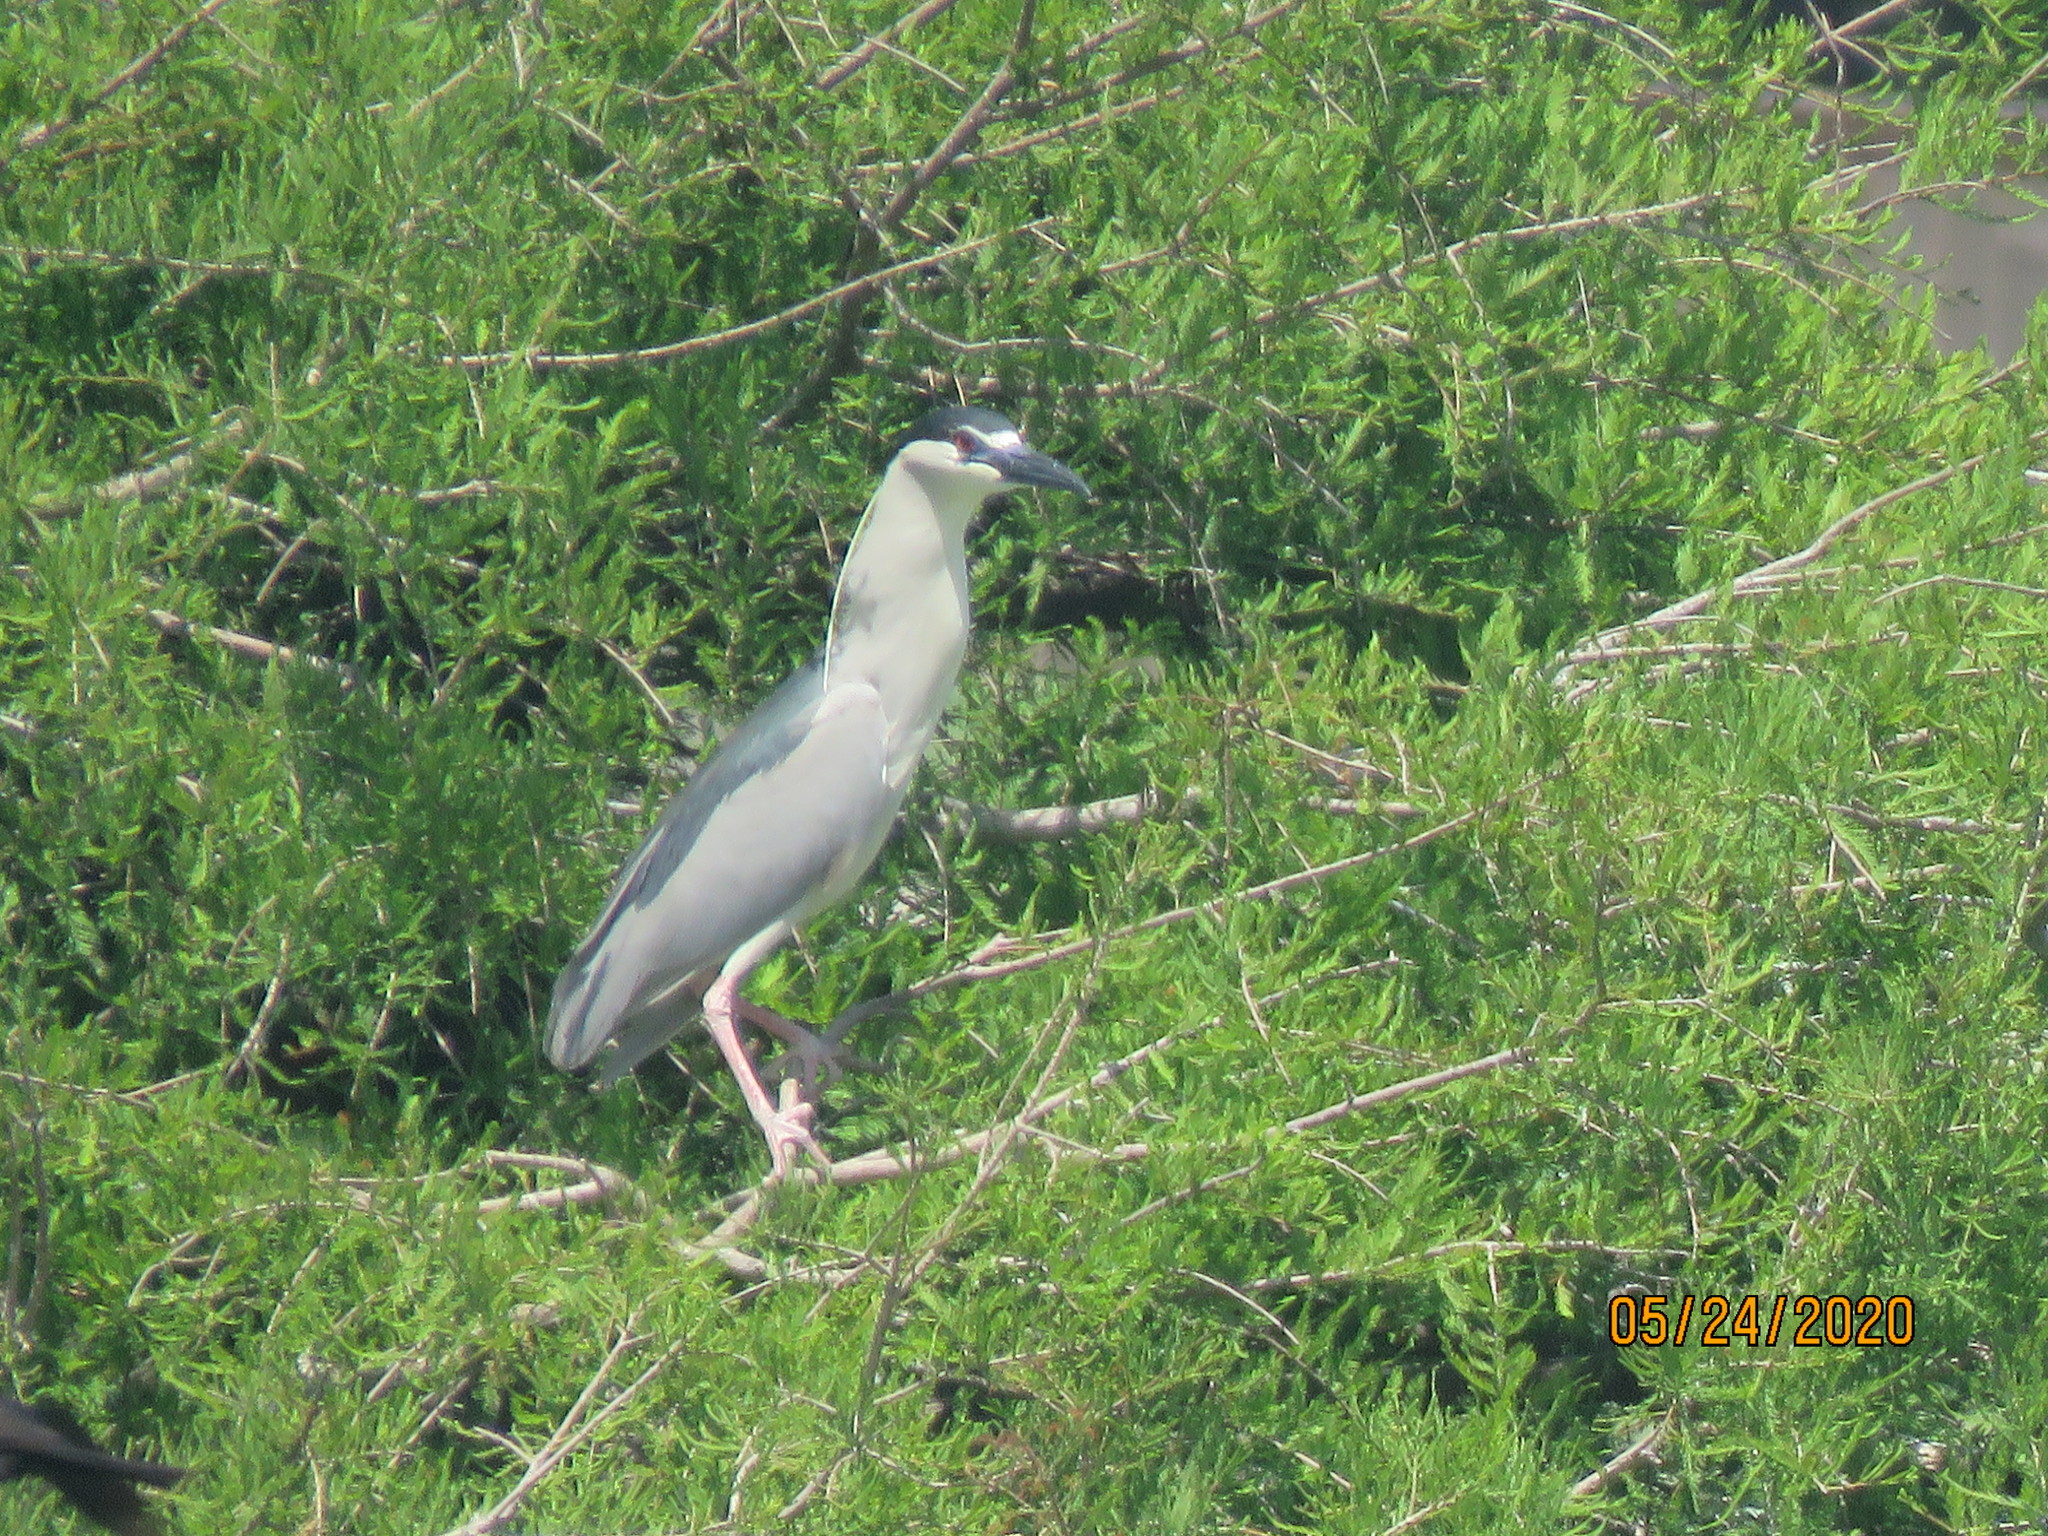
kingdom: Animalia
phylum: Chordata
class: Aves
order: Pelecaniformes
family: Ardeidae
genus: Nycticorax
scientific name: Nycticorax nycticorax
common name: Black-crowned night heron
